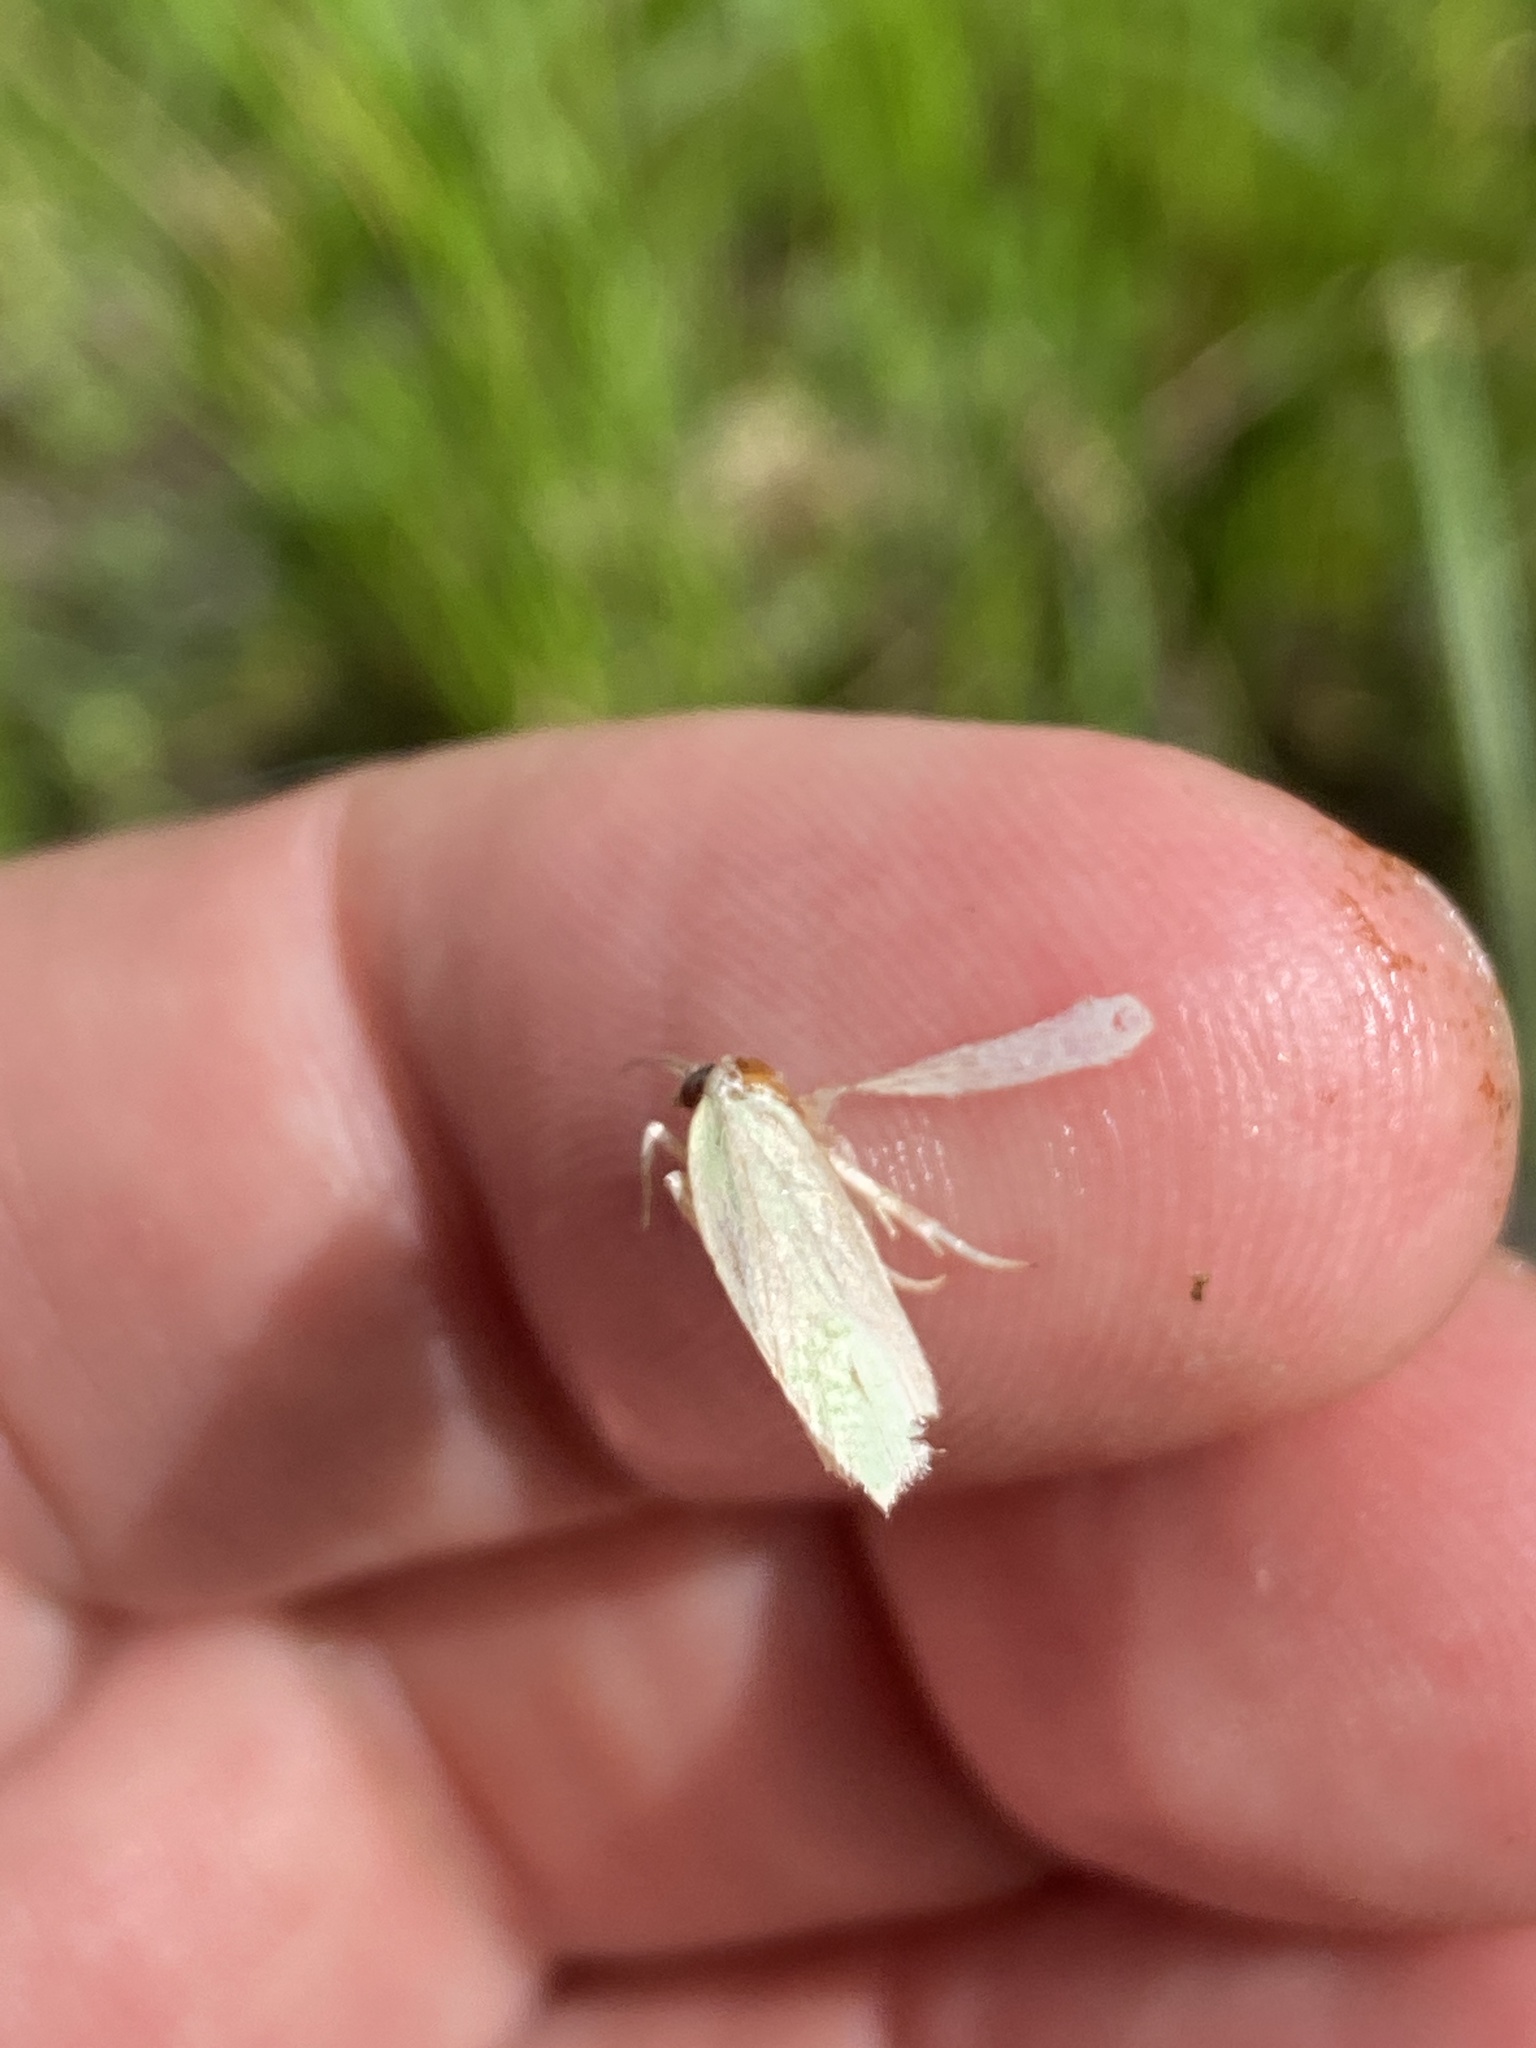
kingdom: Animalia
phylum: Arthropoda
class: Insecta
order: Lepidoptera
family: Tortricidae
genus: Tortrix
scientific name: Tortrix viridana
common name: Green oak tortrix
